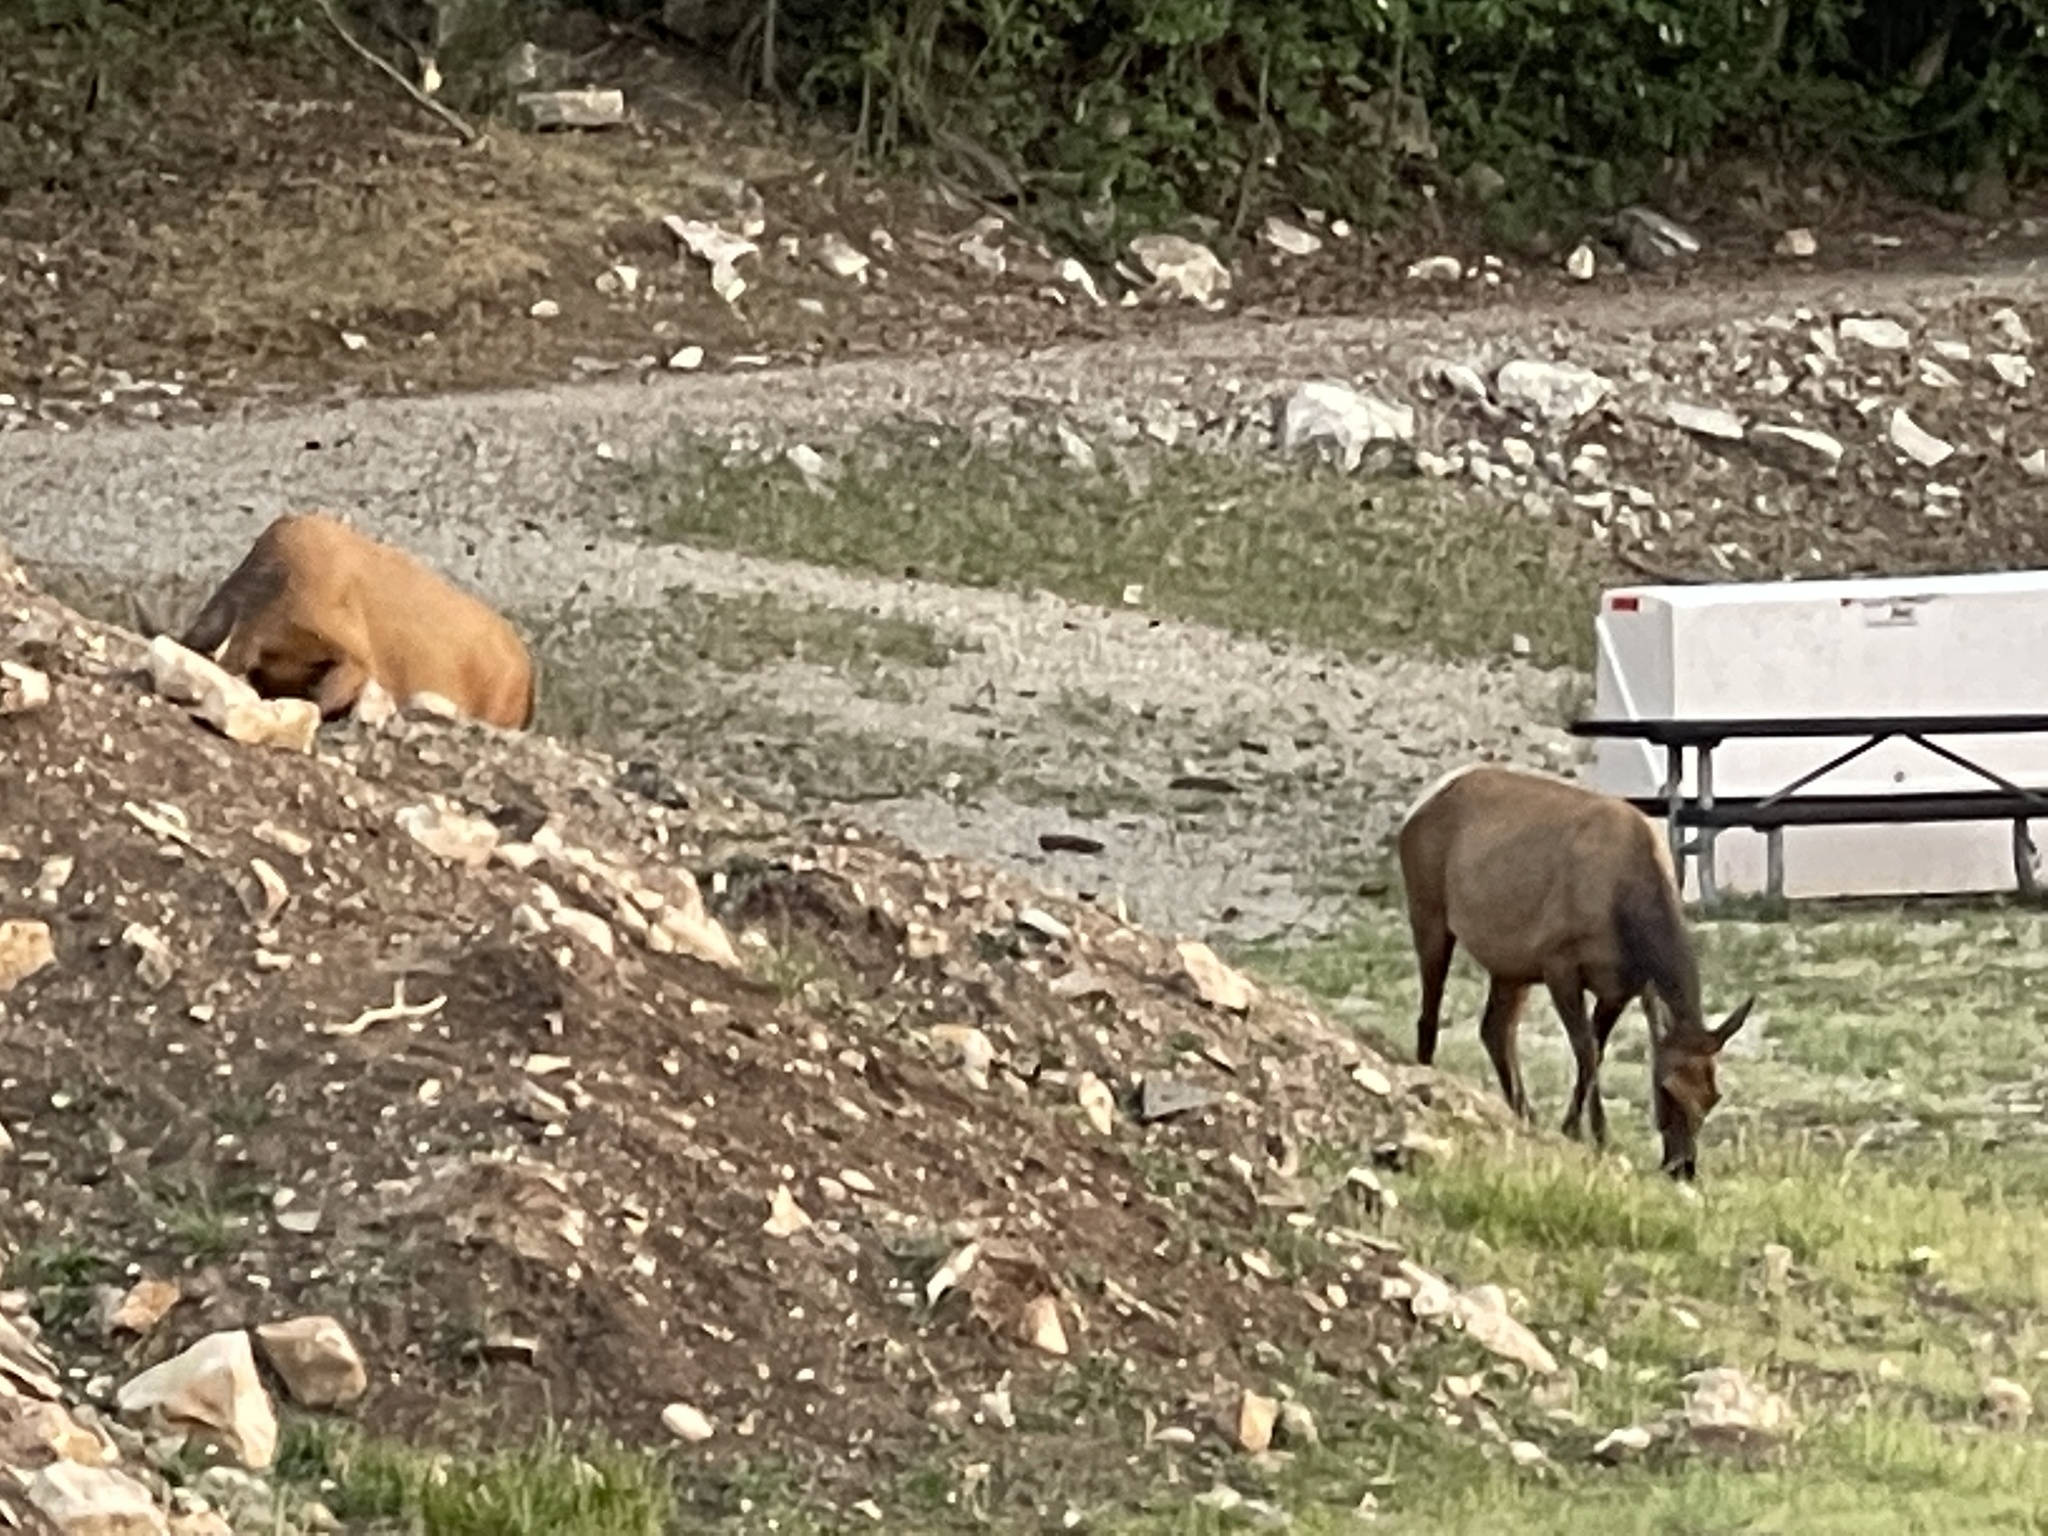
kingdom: Animalia
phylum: Chordata
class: Mammalia
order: Artiodactyla
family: Cervidae
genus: Cervus
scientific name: Cervus elaphus
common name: Red deer
